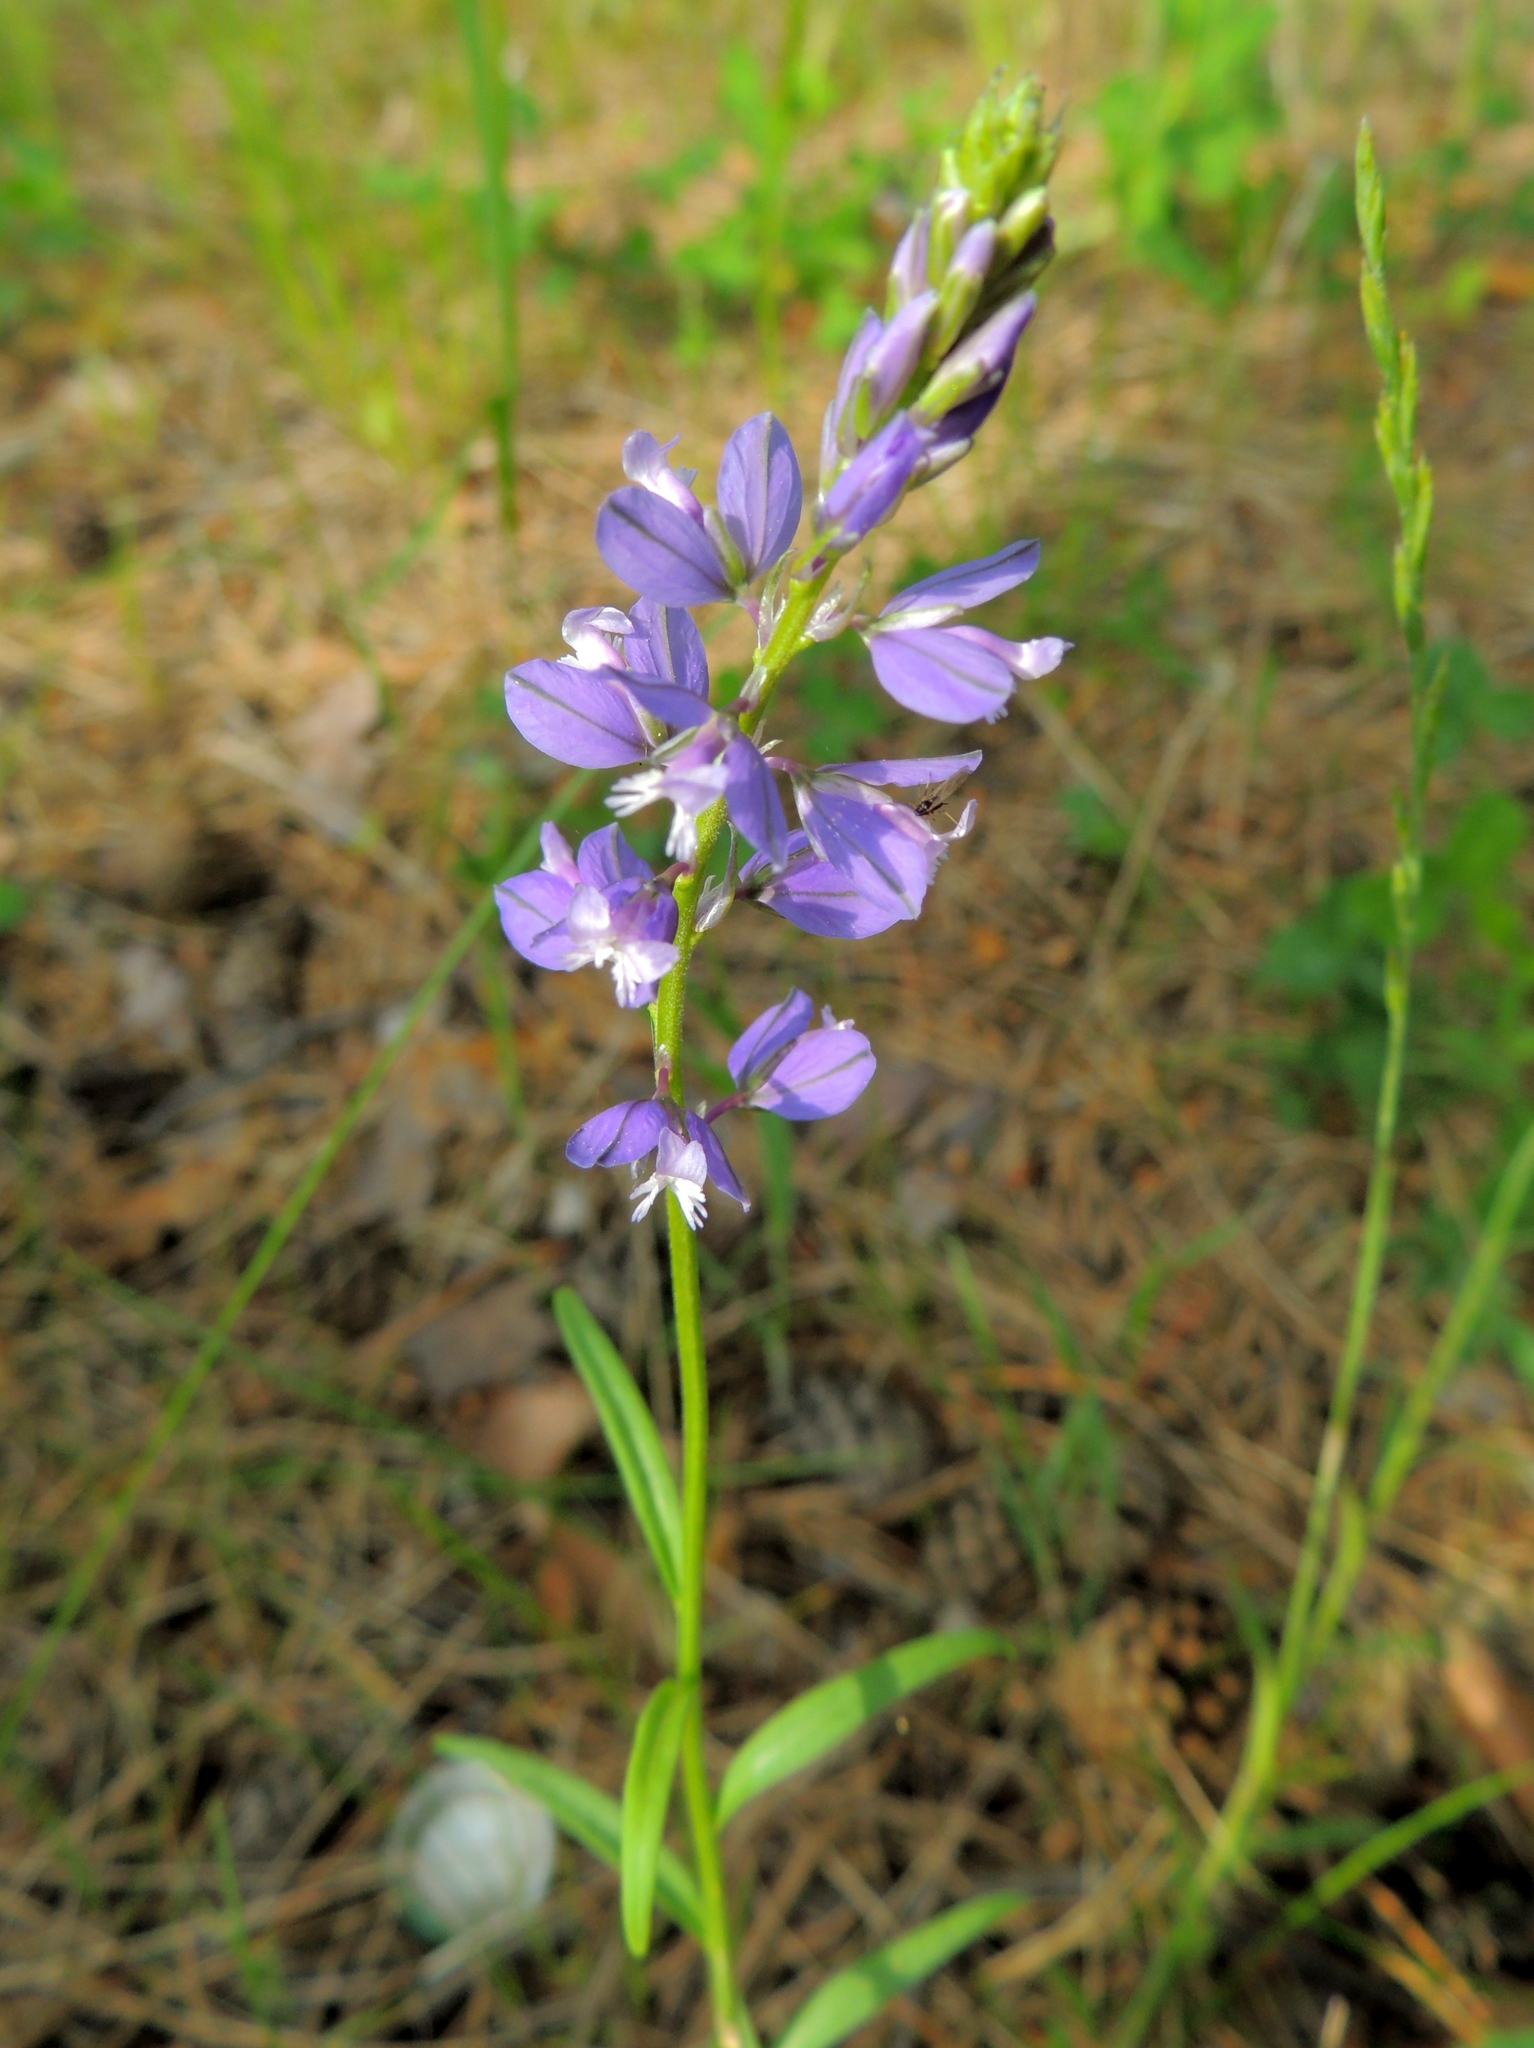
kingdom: Plantae
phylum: Tracheophyta
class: Magnoliopsida
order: Fabales
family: Polygalaceae
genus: Polygala
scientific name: Polygala comosa
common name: Tufted milkwort
